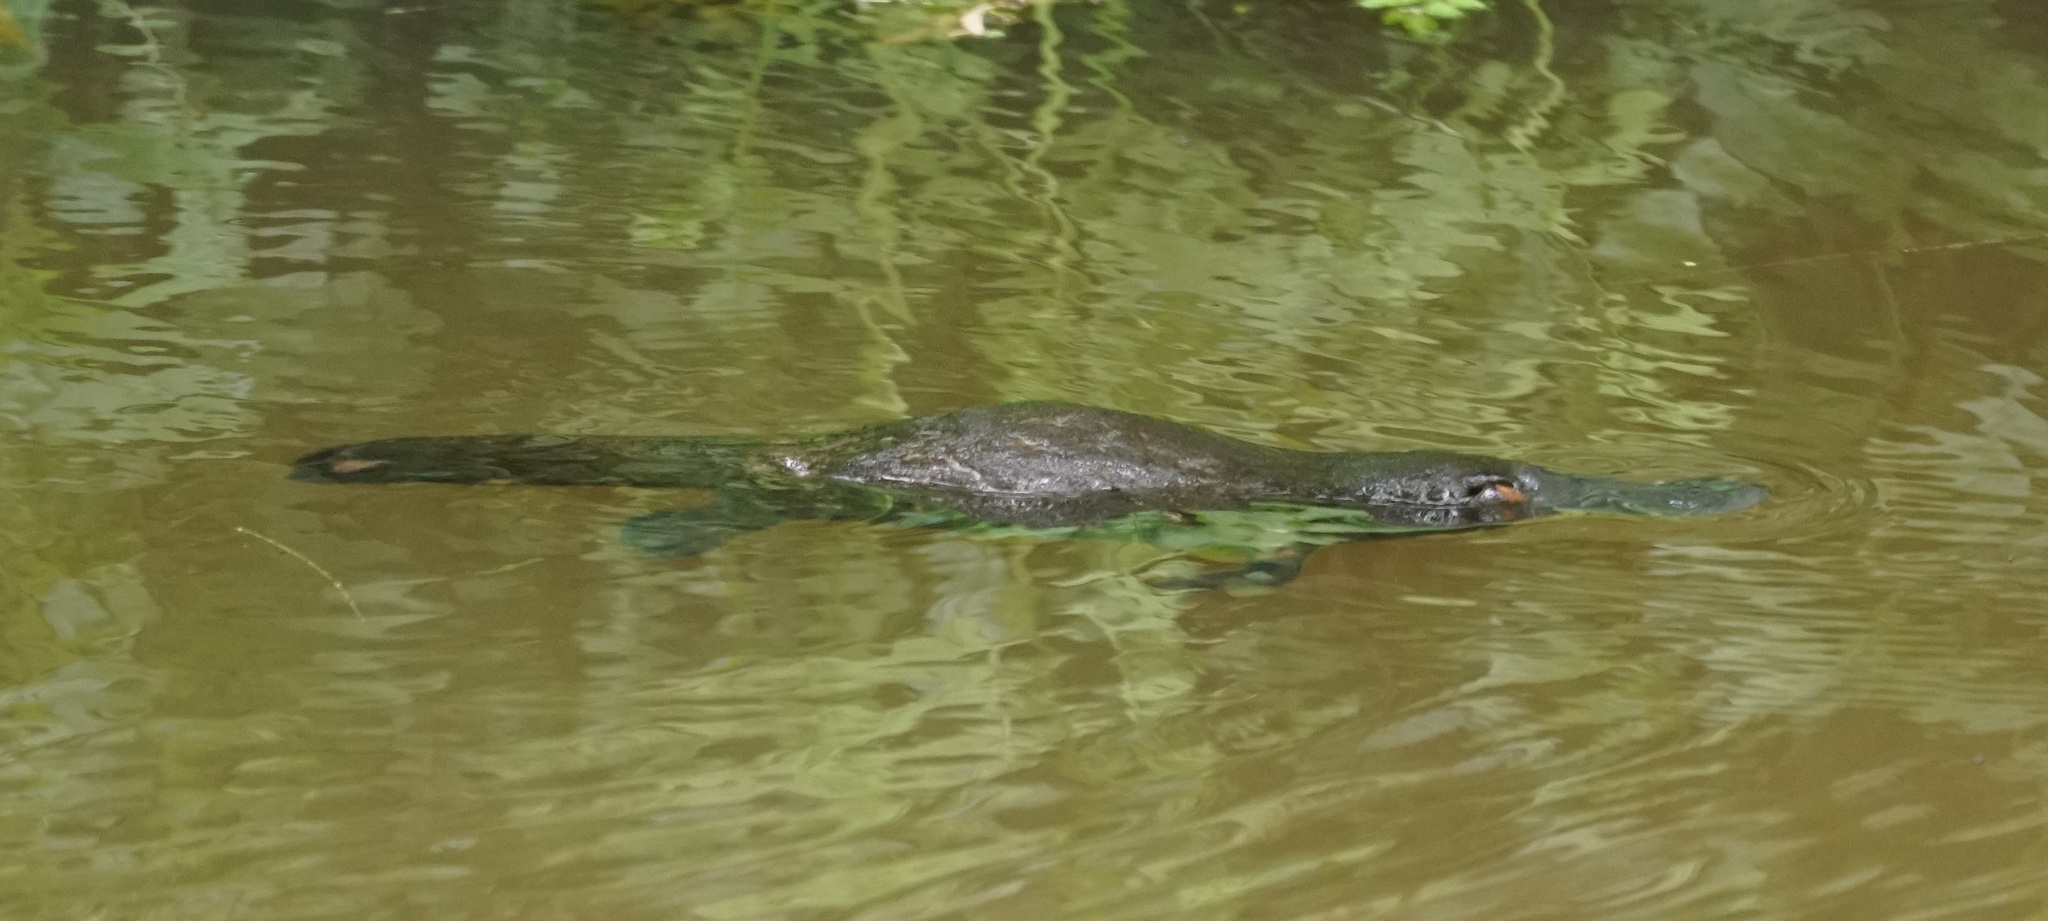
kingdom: Animalia
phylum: Chordata
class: Mammalia
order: Monotremata
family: Ornithorhynchidae
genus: Ornithorhynchus
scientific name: Ornithorhynchus anatinus
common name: Platypus
